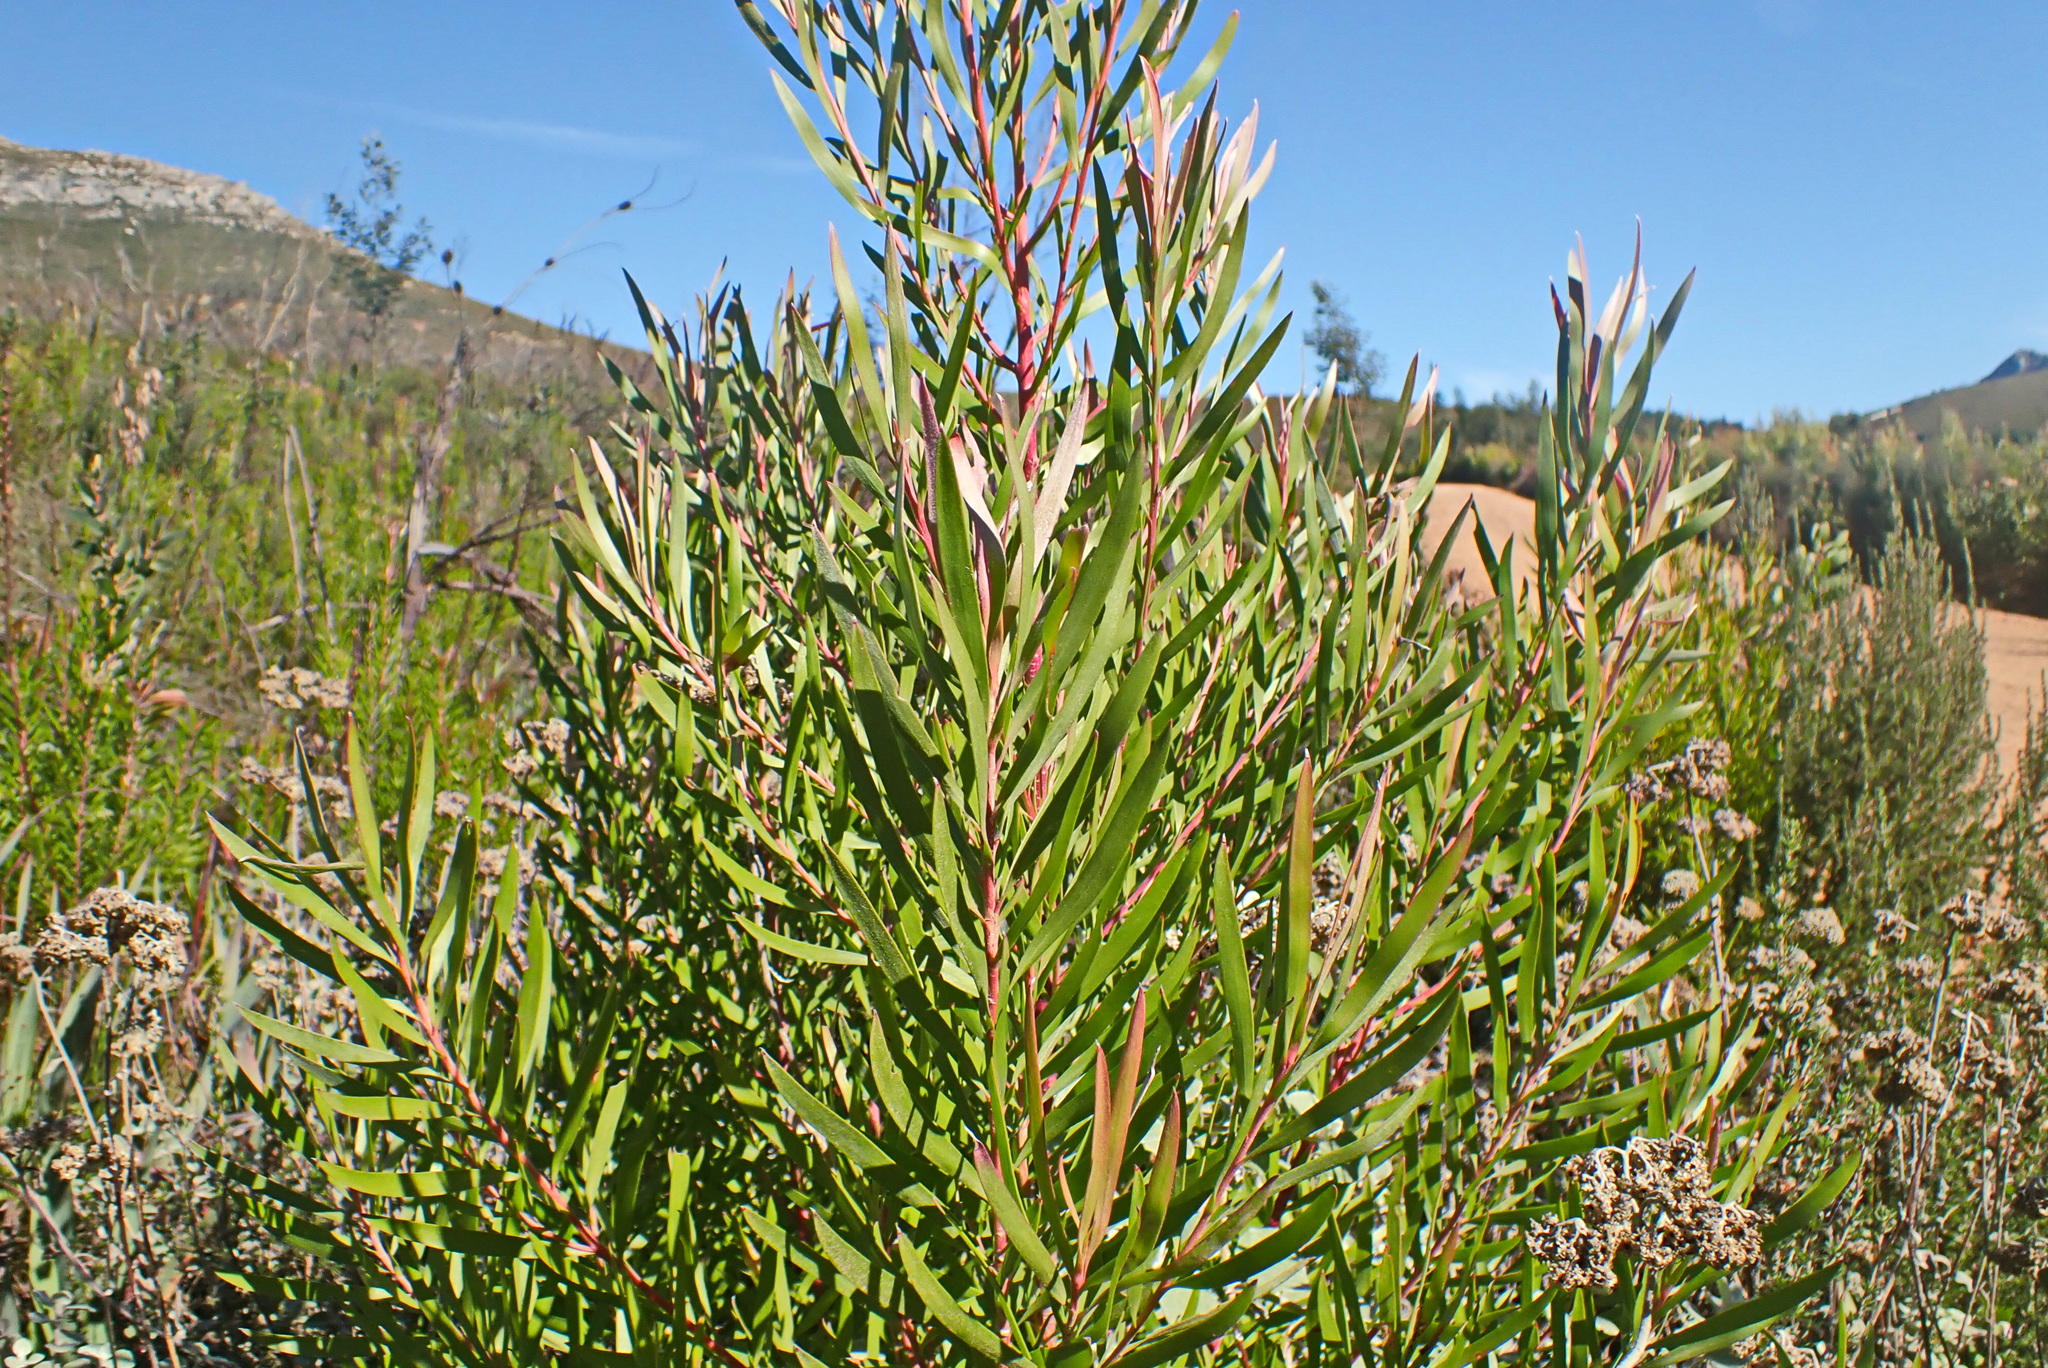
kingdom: Plantae
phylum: Tracheophyta
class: Magnoliopsida
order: Proteales
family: Proteaceae
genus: Leucadendron
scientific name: Leucadendron eucalyptifolium
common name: Gum-leaved conebush
